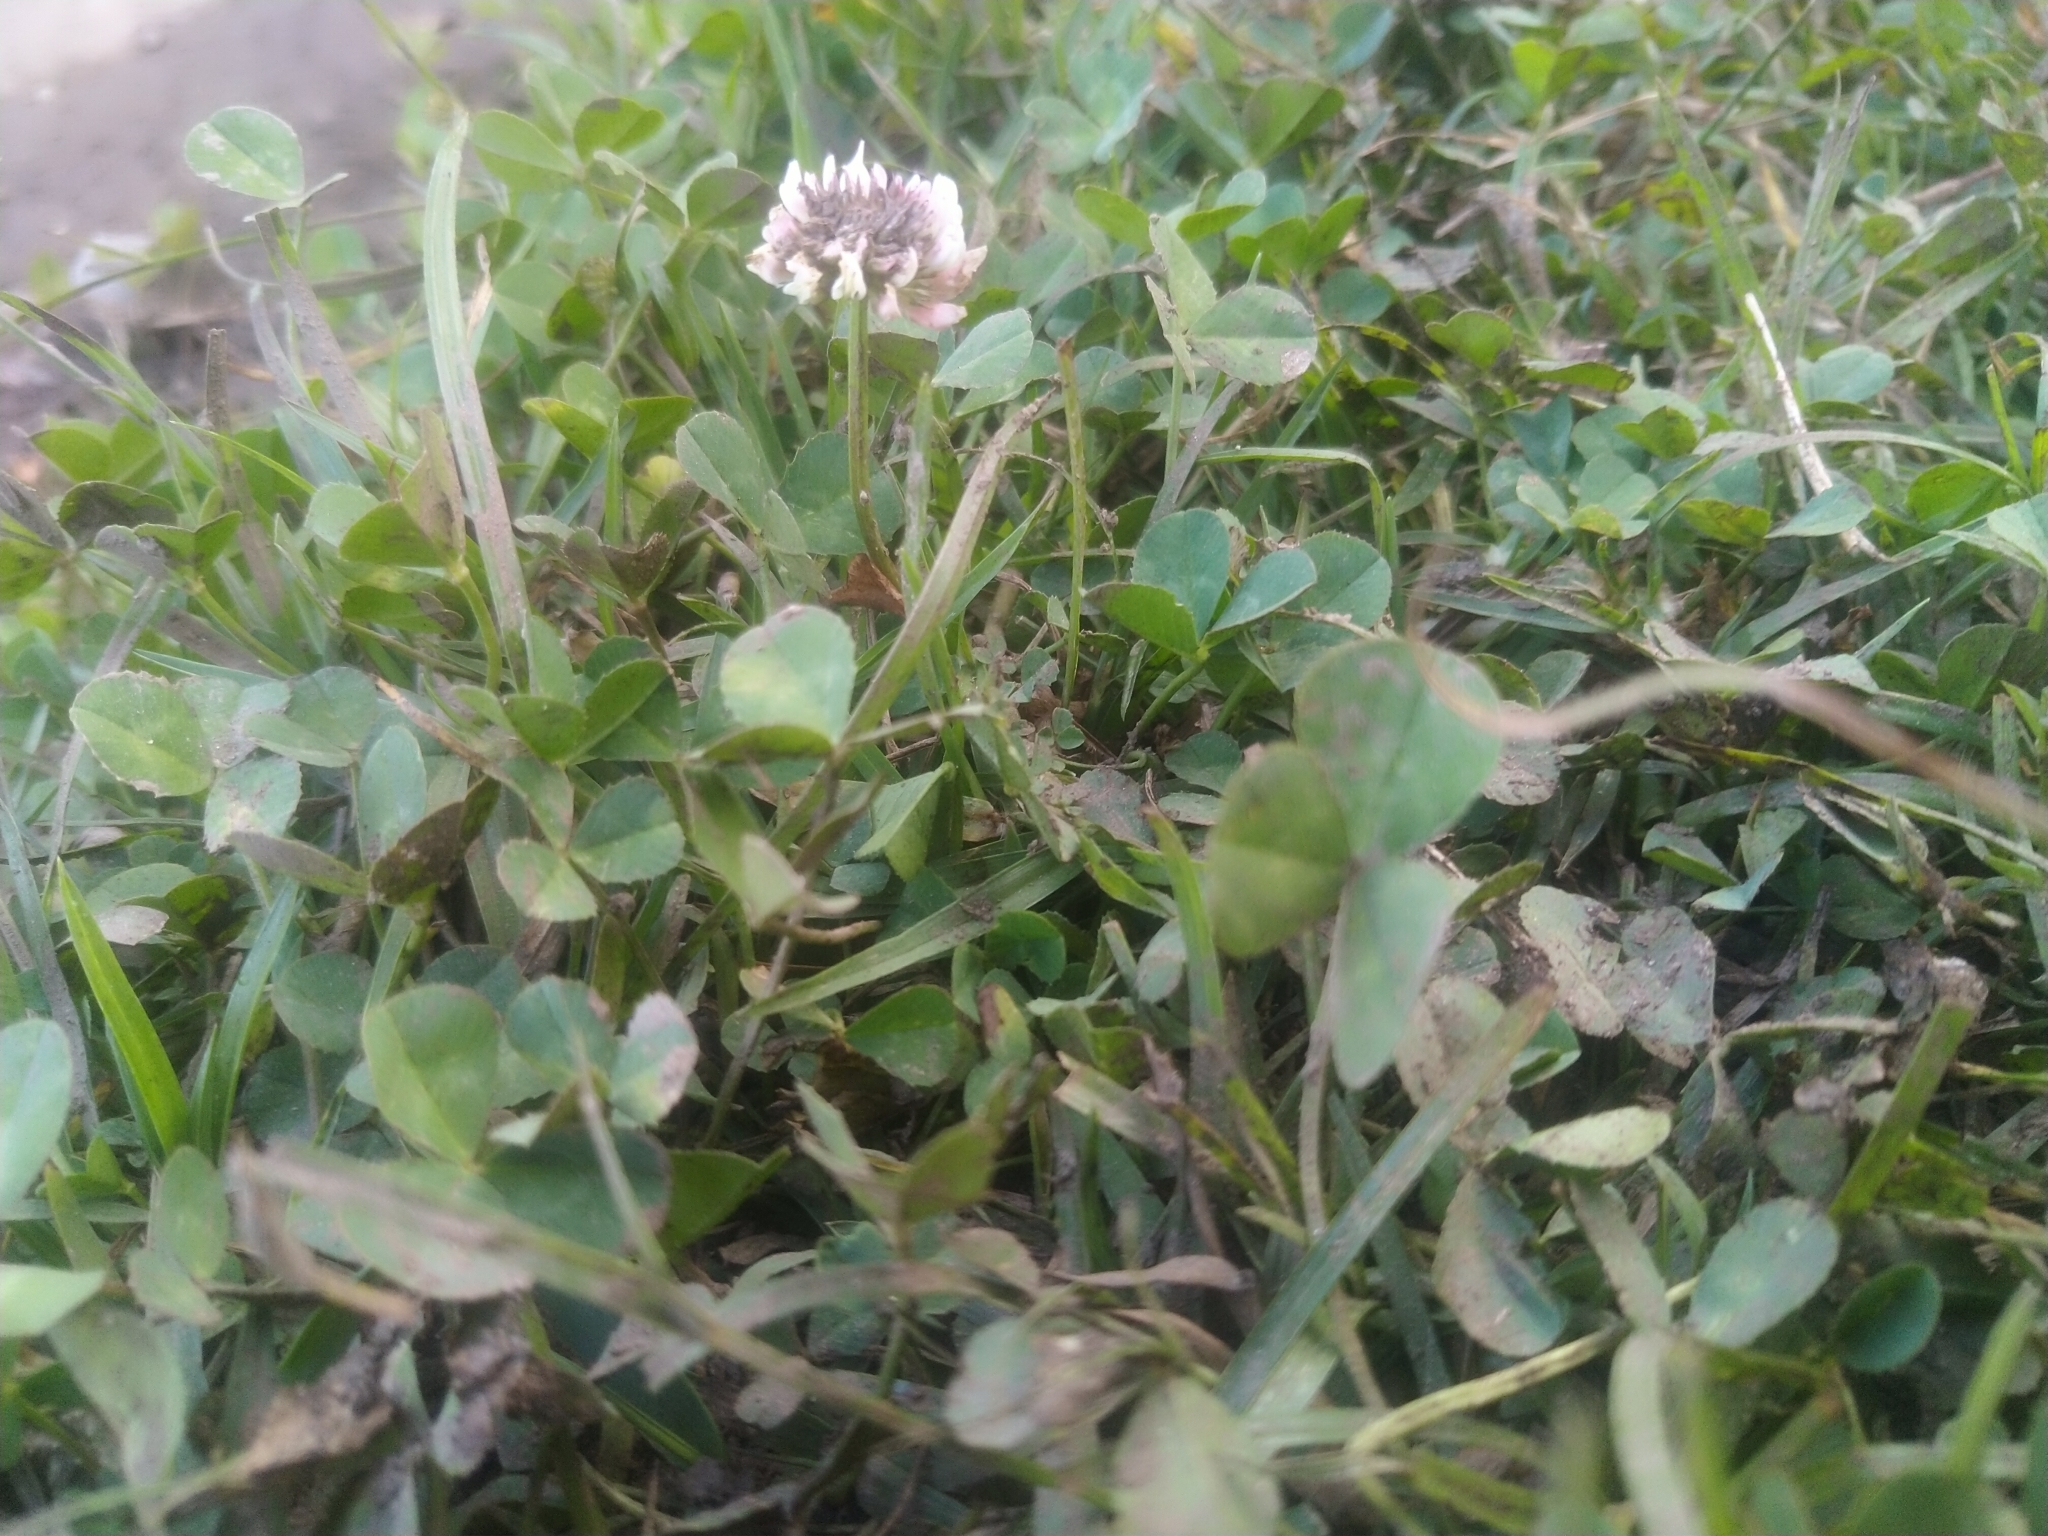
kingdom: Plantae
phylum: Tracheophyta
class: Magnoliopsida
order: Fabales
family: Fabaceae
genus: Trifolium
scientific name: Trifolium repens
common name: White clover
